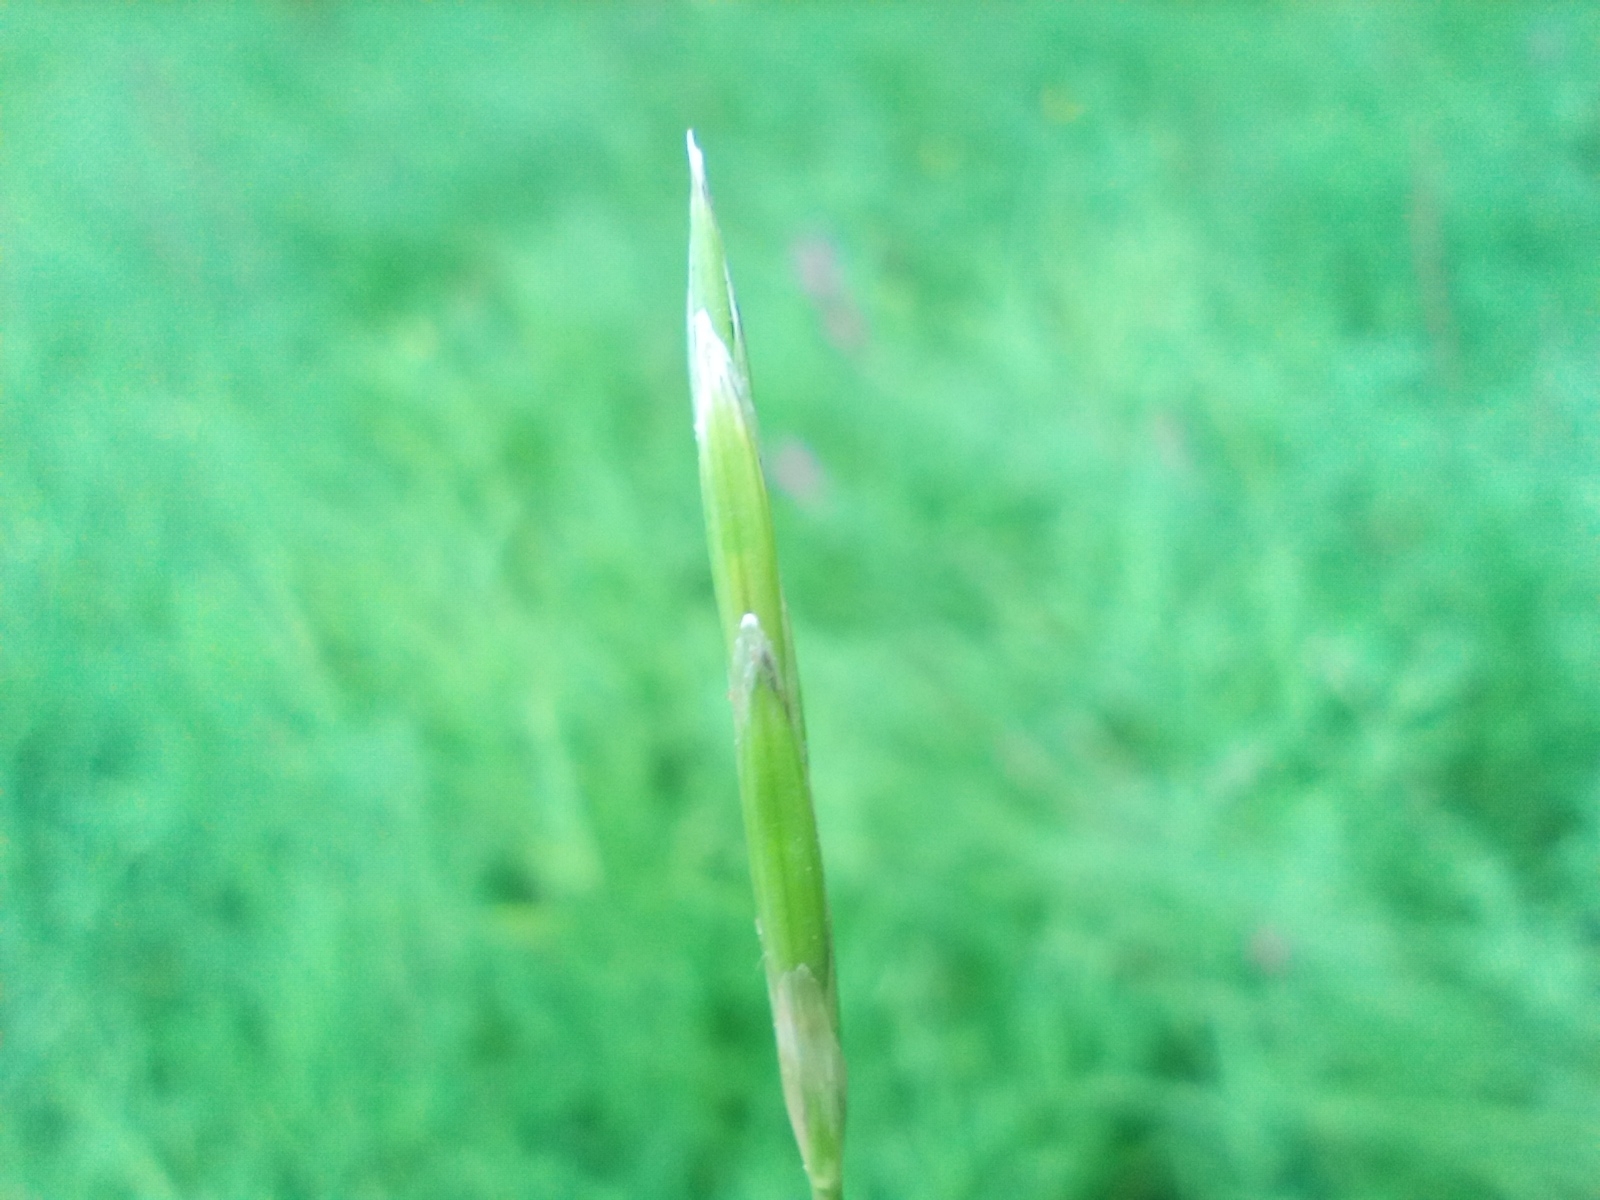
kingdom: Plantae
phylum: Tracheophyta
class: Liliopsida
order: Poales
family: Poaceae
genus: Glyceria
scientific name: Glyceria fluitans
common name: Floating sweet-grass
